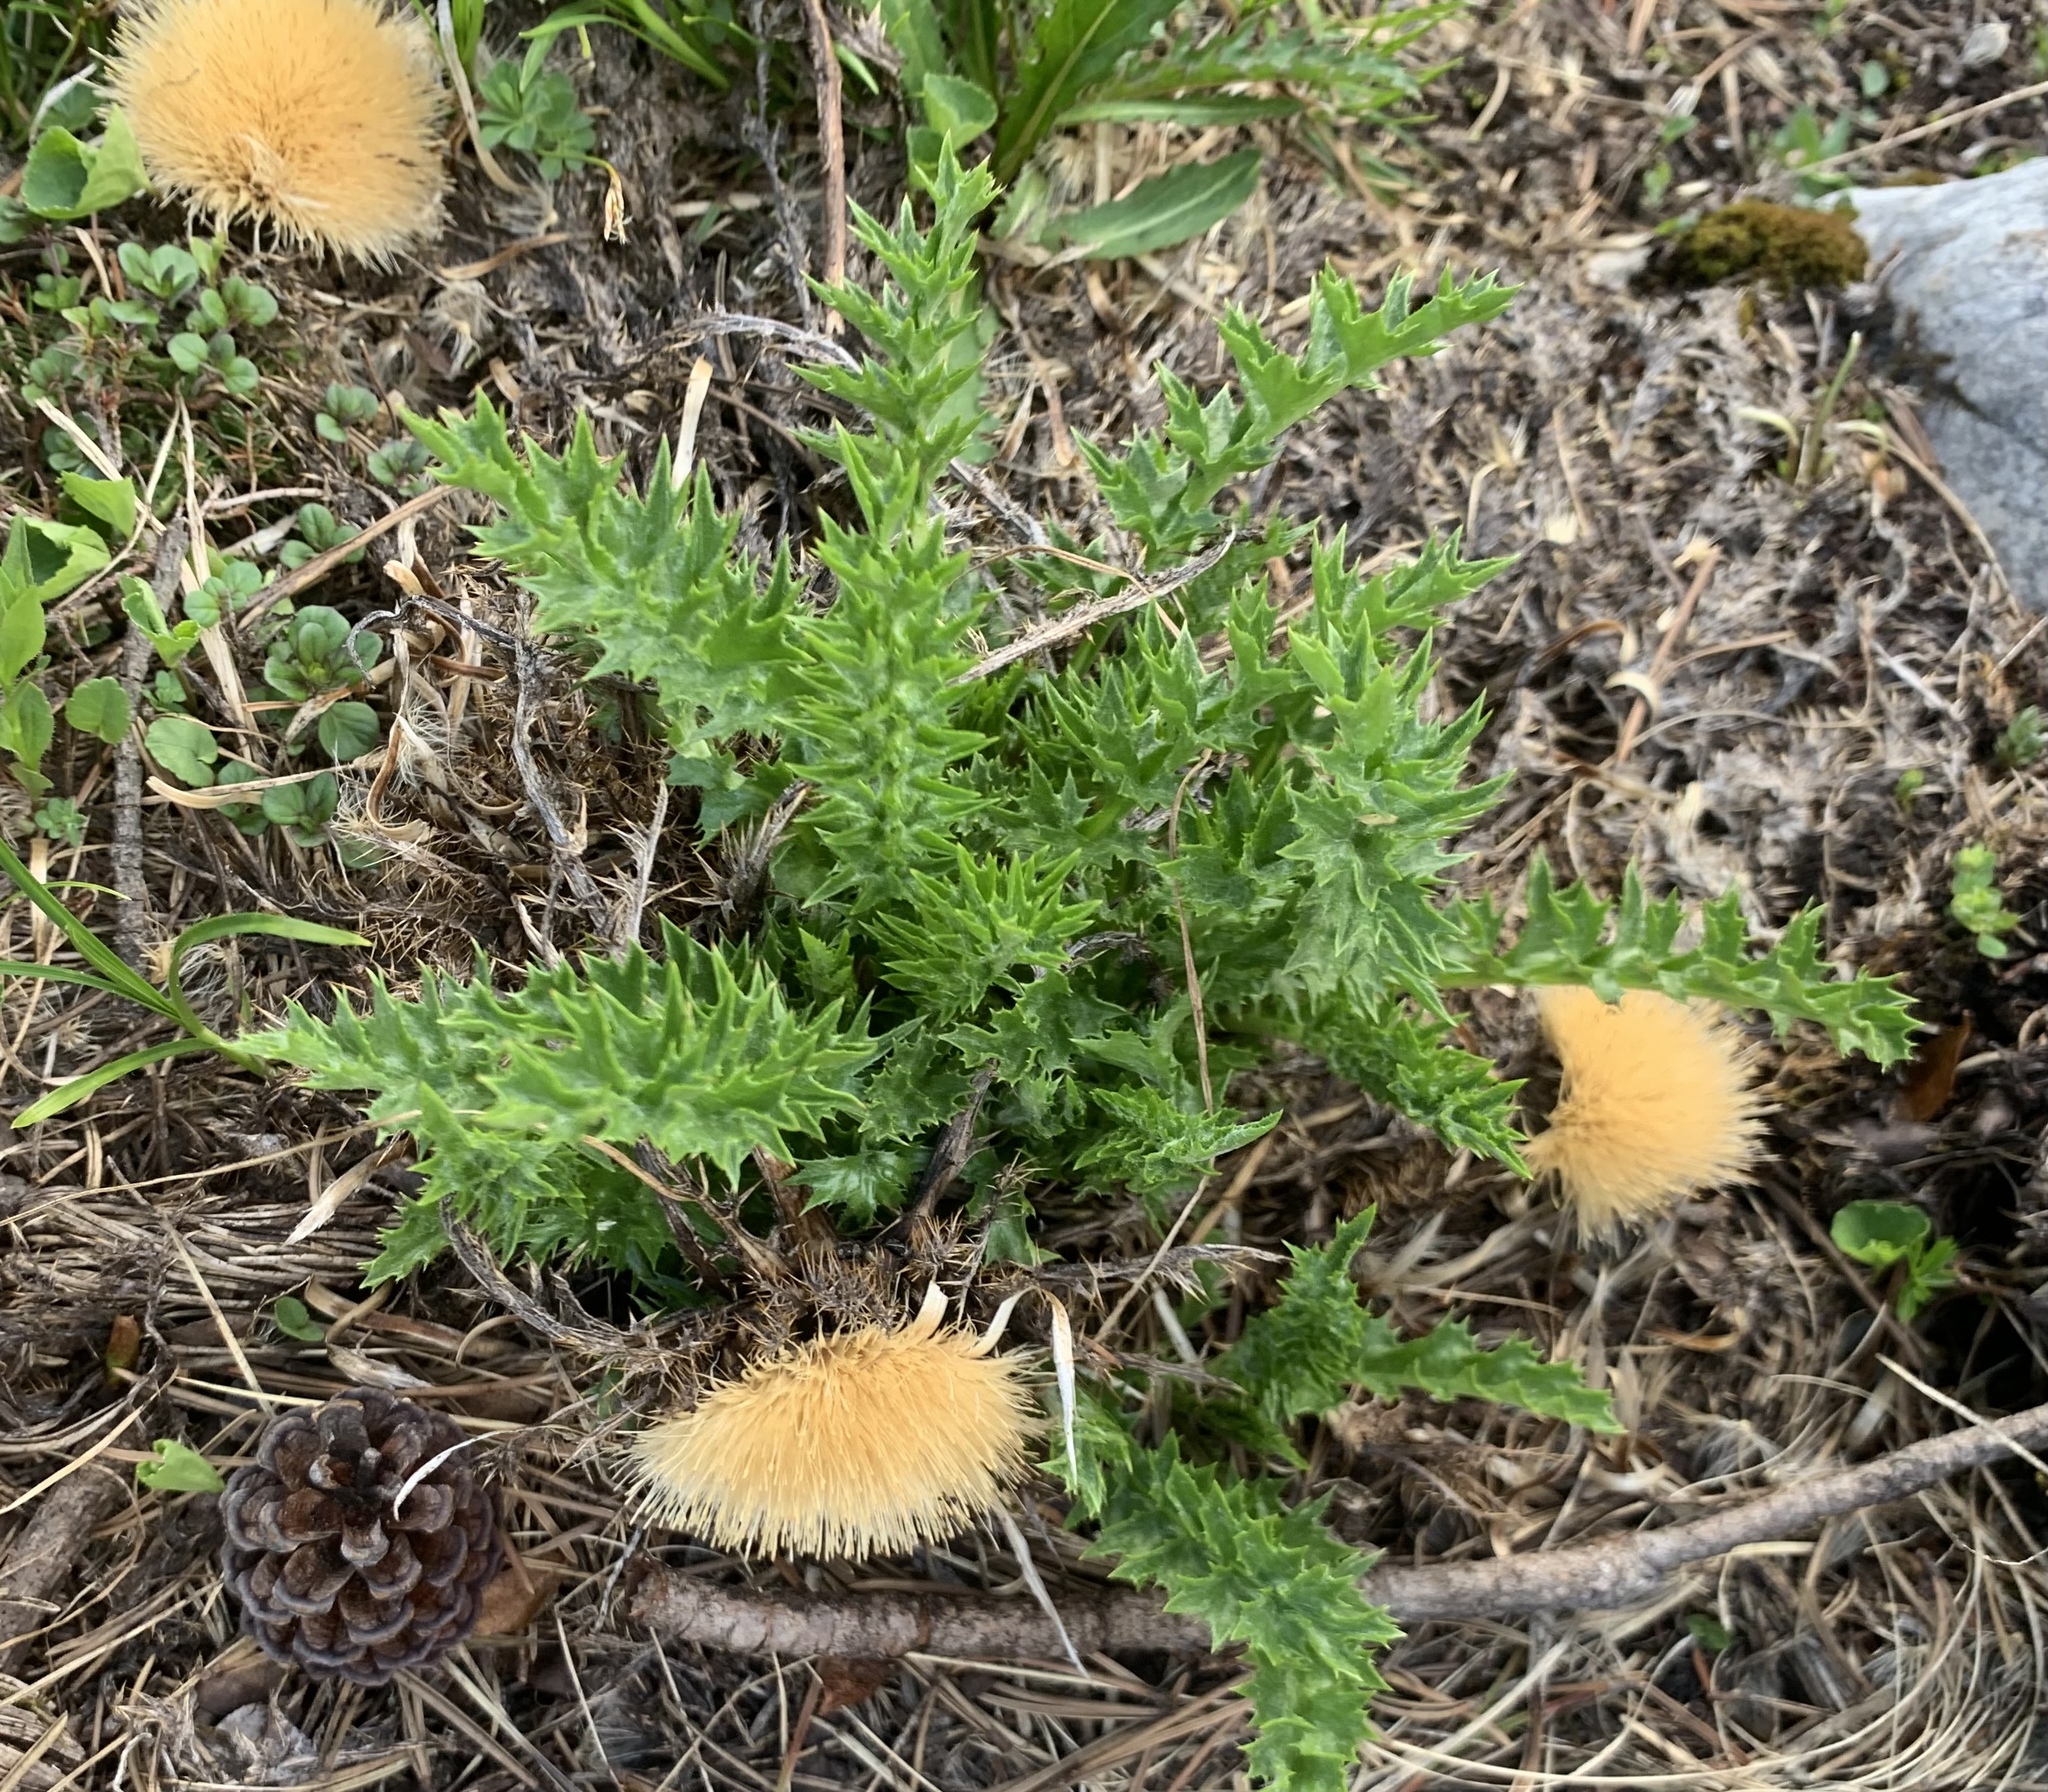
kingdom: Plantae
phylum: Tracheophyta
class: Magnoliopsida
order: Asterales
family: Asteraceae
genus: Carlina
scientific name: Carlina acaulis
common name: Stemless carline thistle
